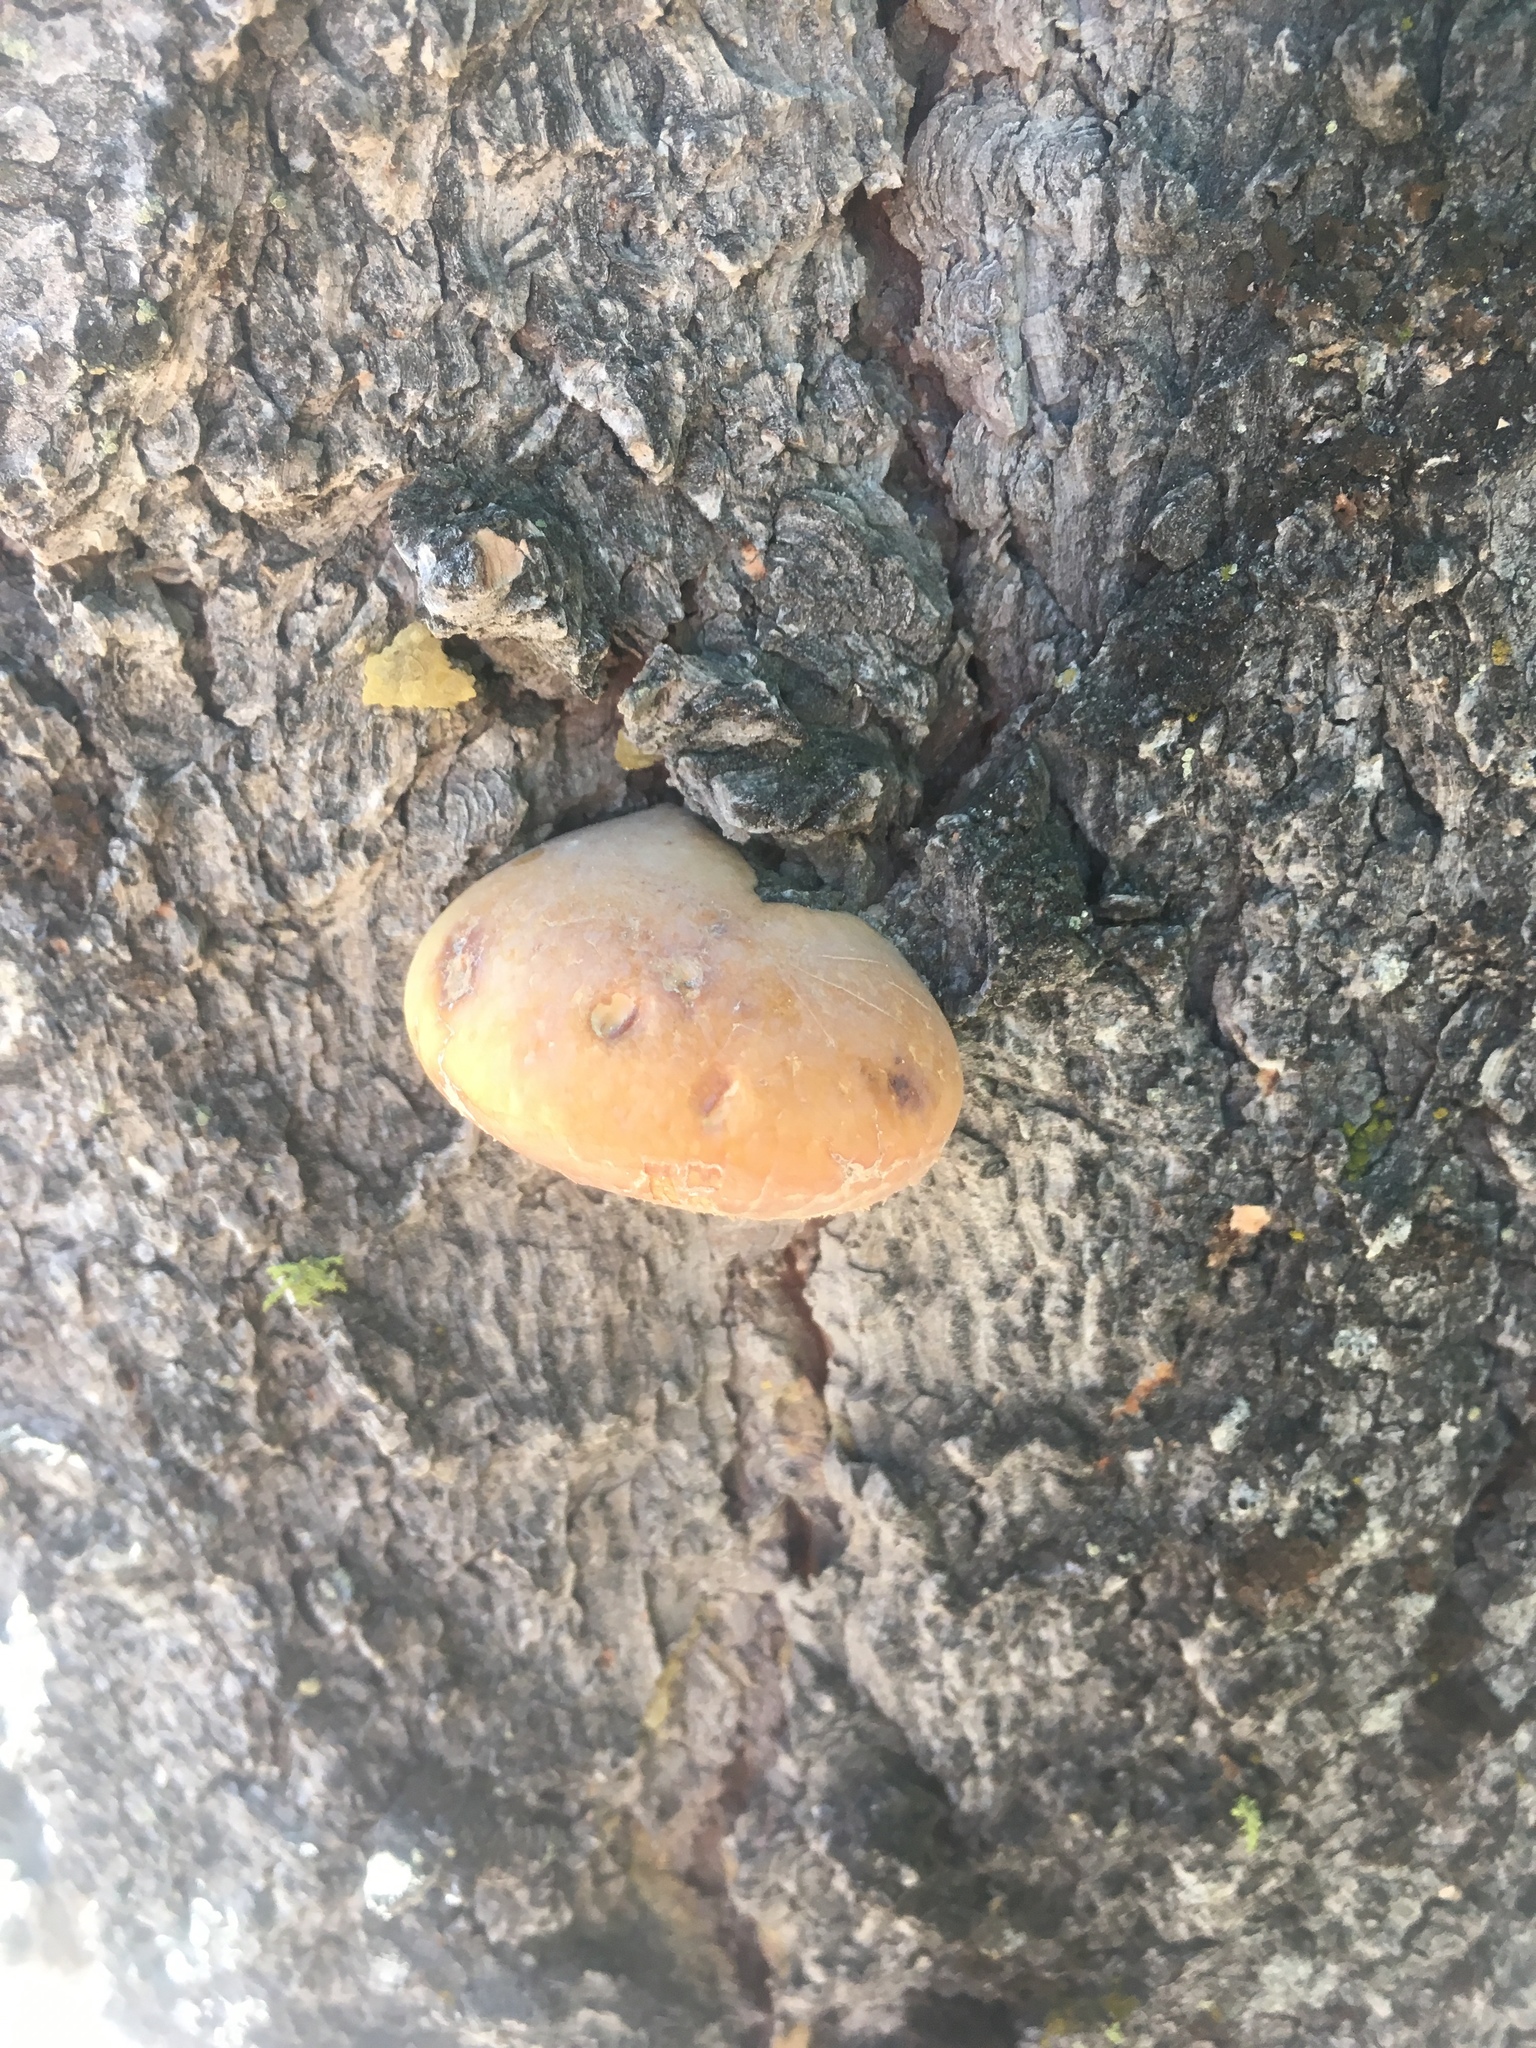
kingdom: Fungi
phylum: Basidiomycota
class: Agaricomycetes
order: Polyporales
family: Polyporaceae
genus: Cryptoporus
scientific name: Cryptoporus volvatus
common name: Veiled polypore
